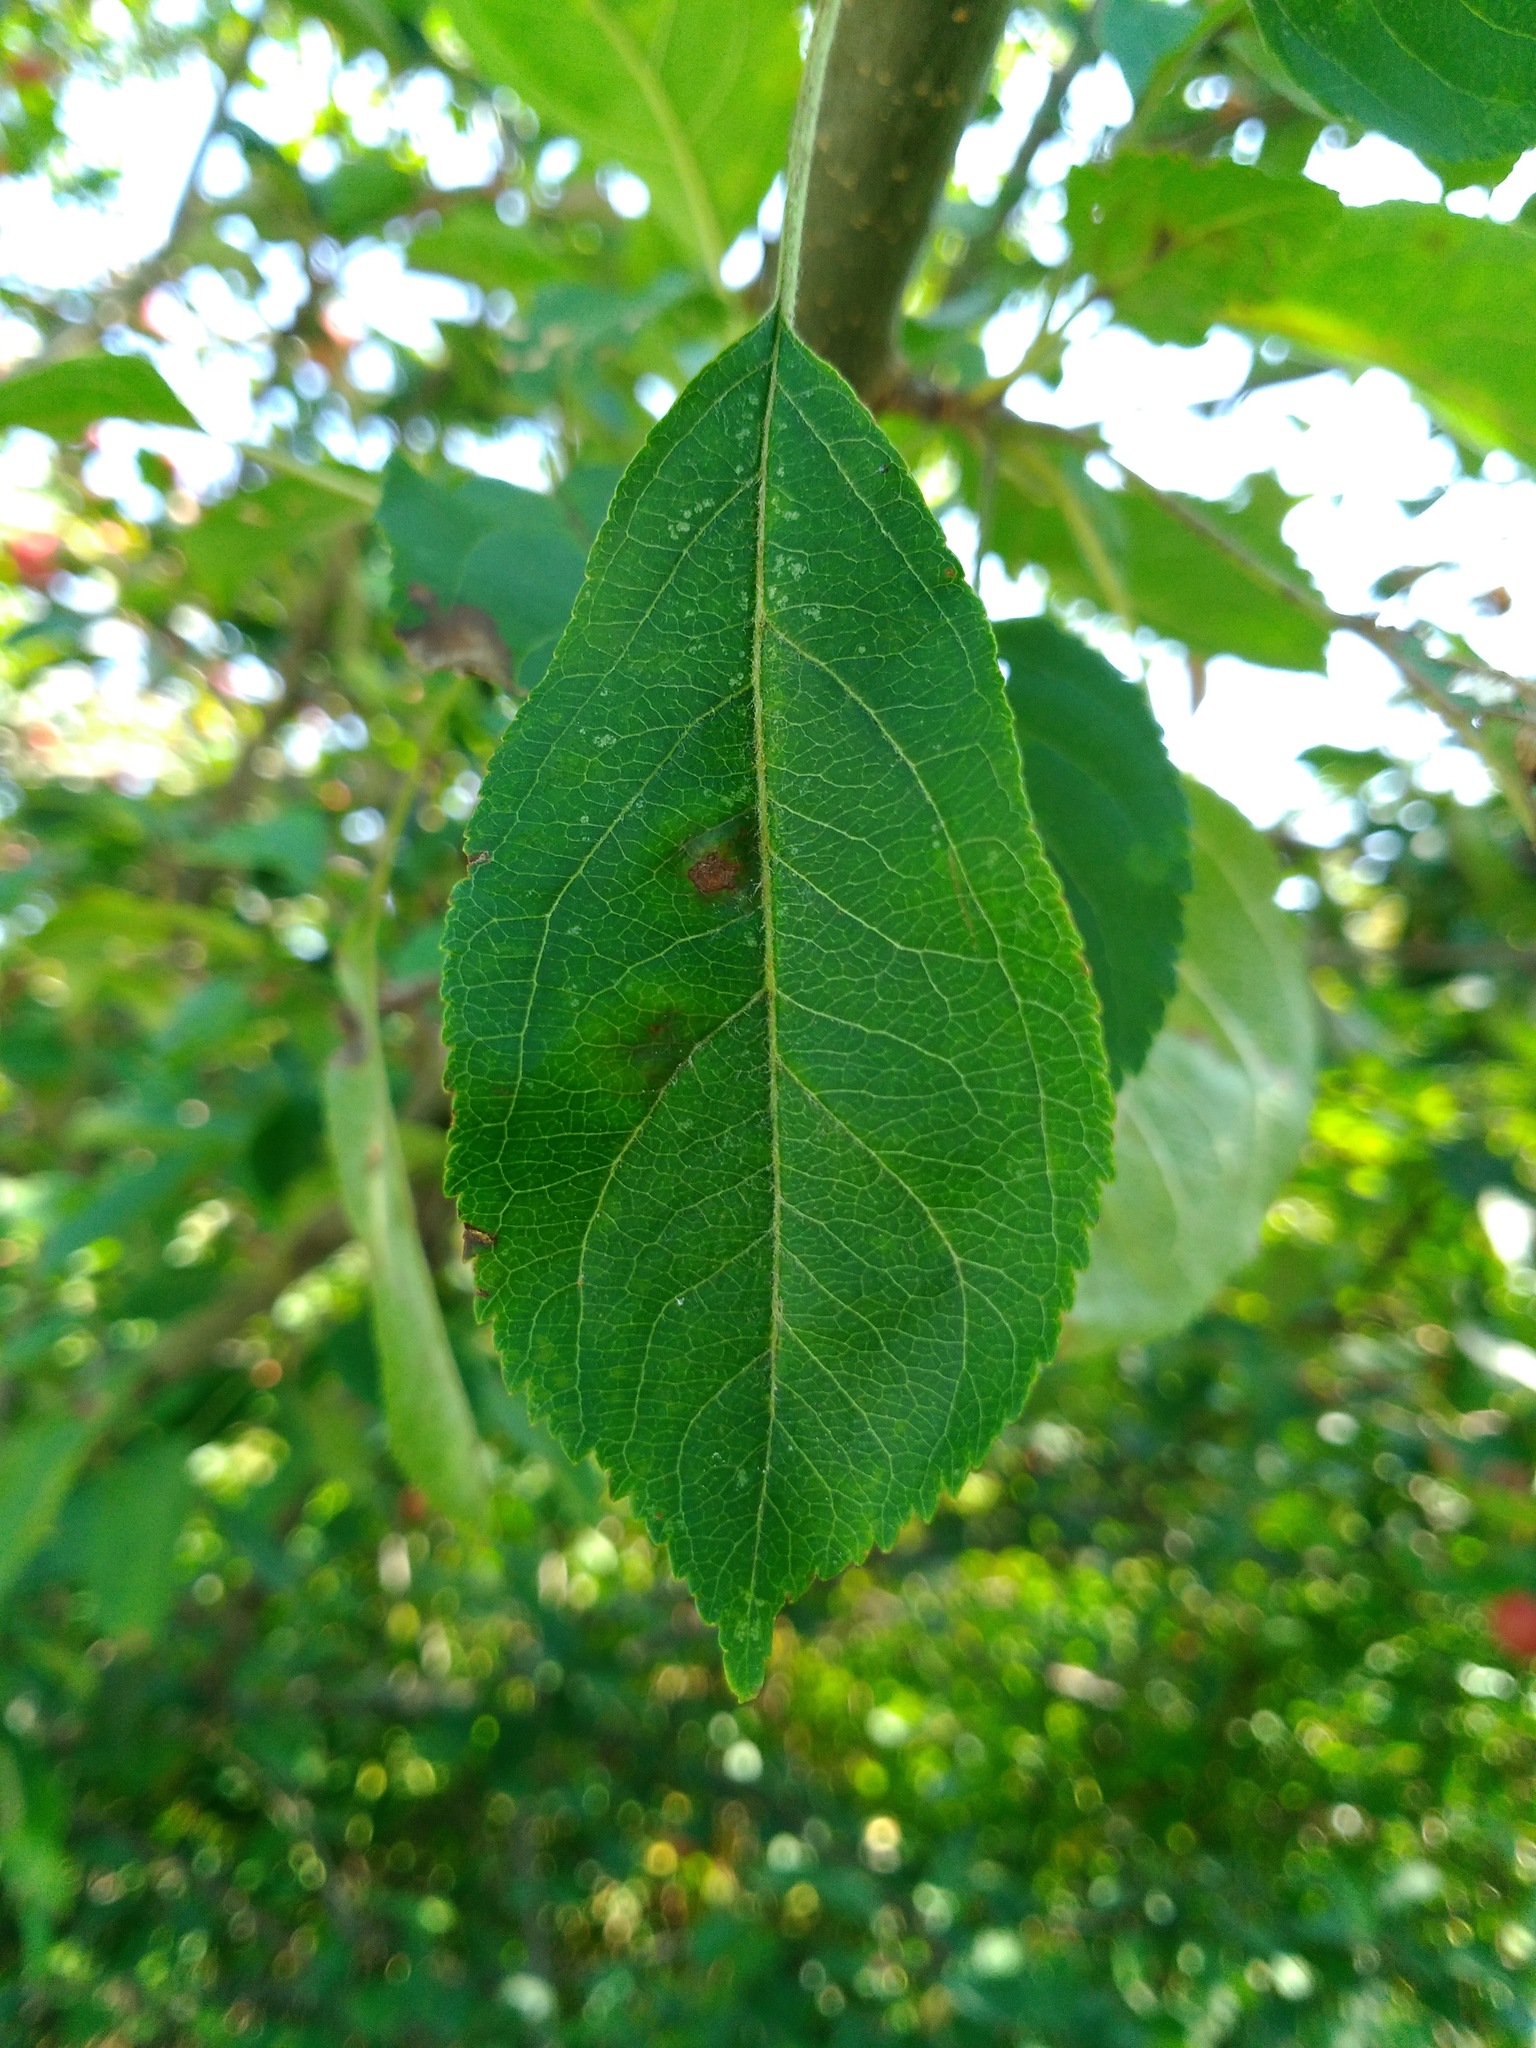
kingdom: Plantae
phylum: Tracheophyta
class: Magnoliopsida
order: Rosales
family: Rosaceae
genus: Malus
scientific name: Malus domestica
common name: Apple
